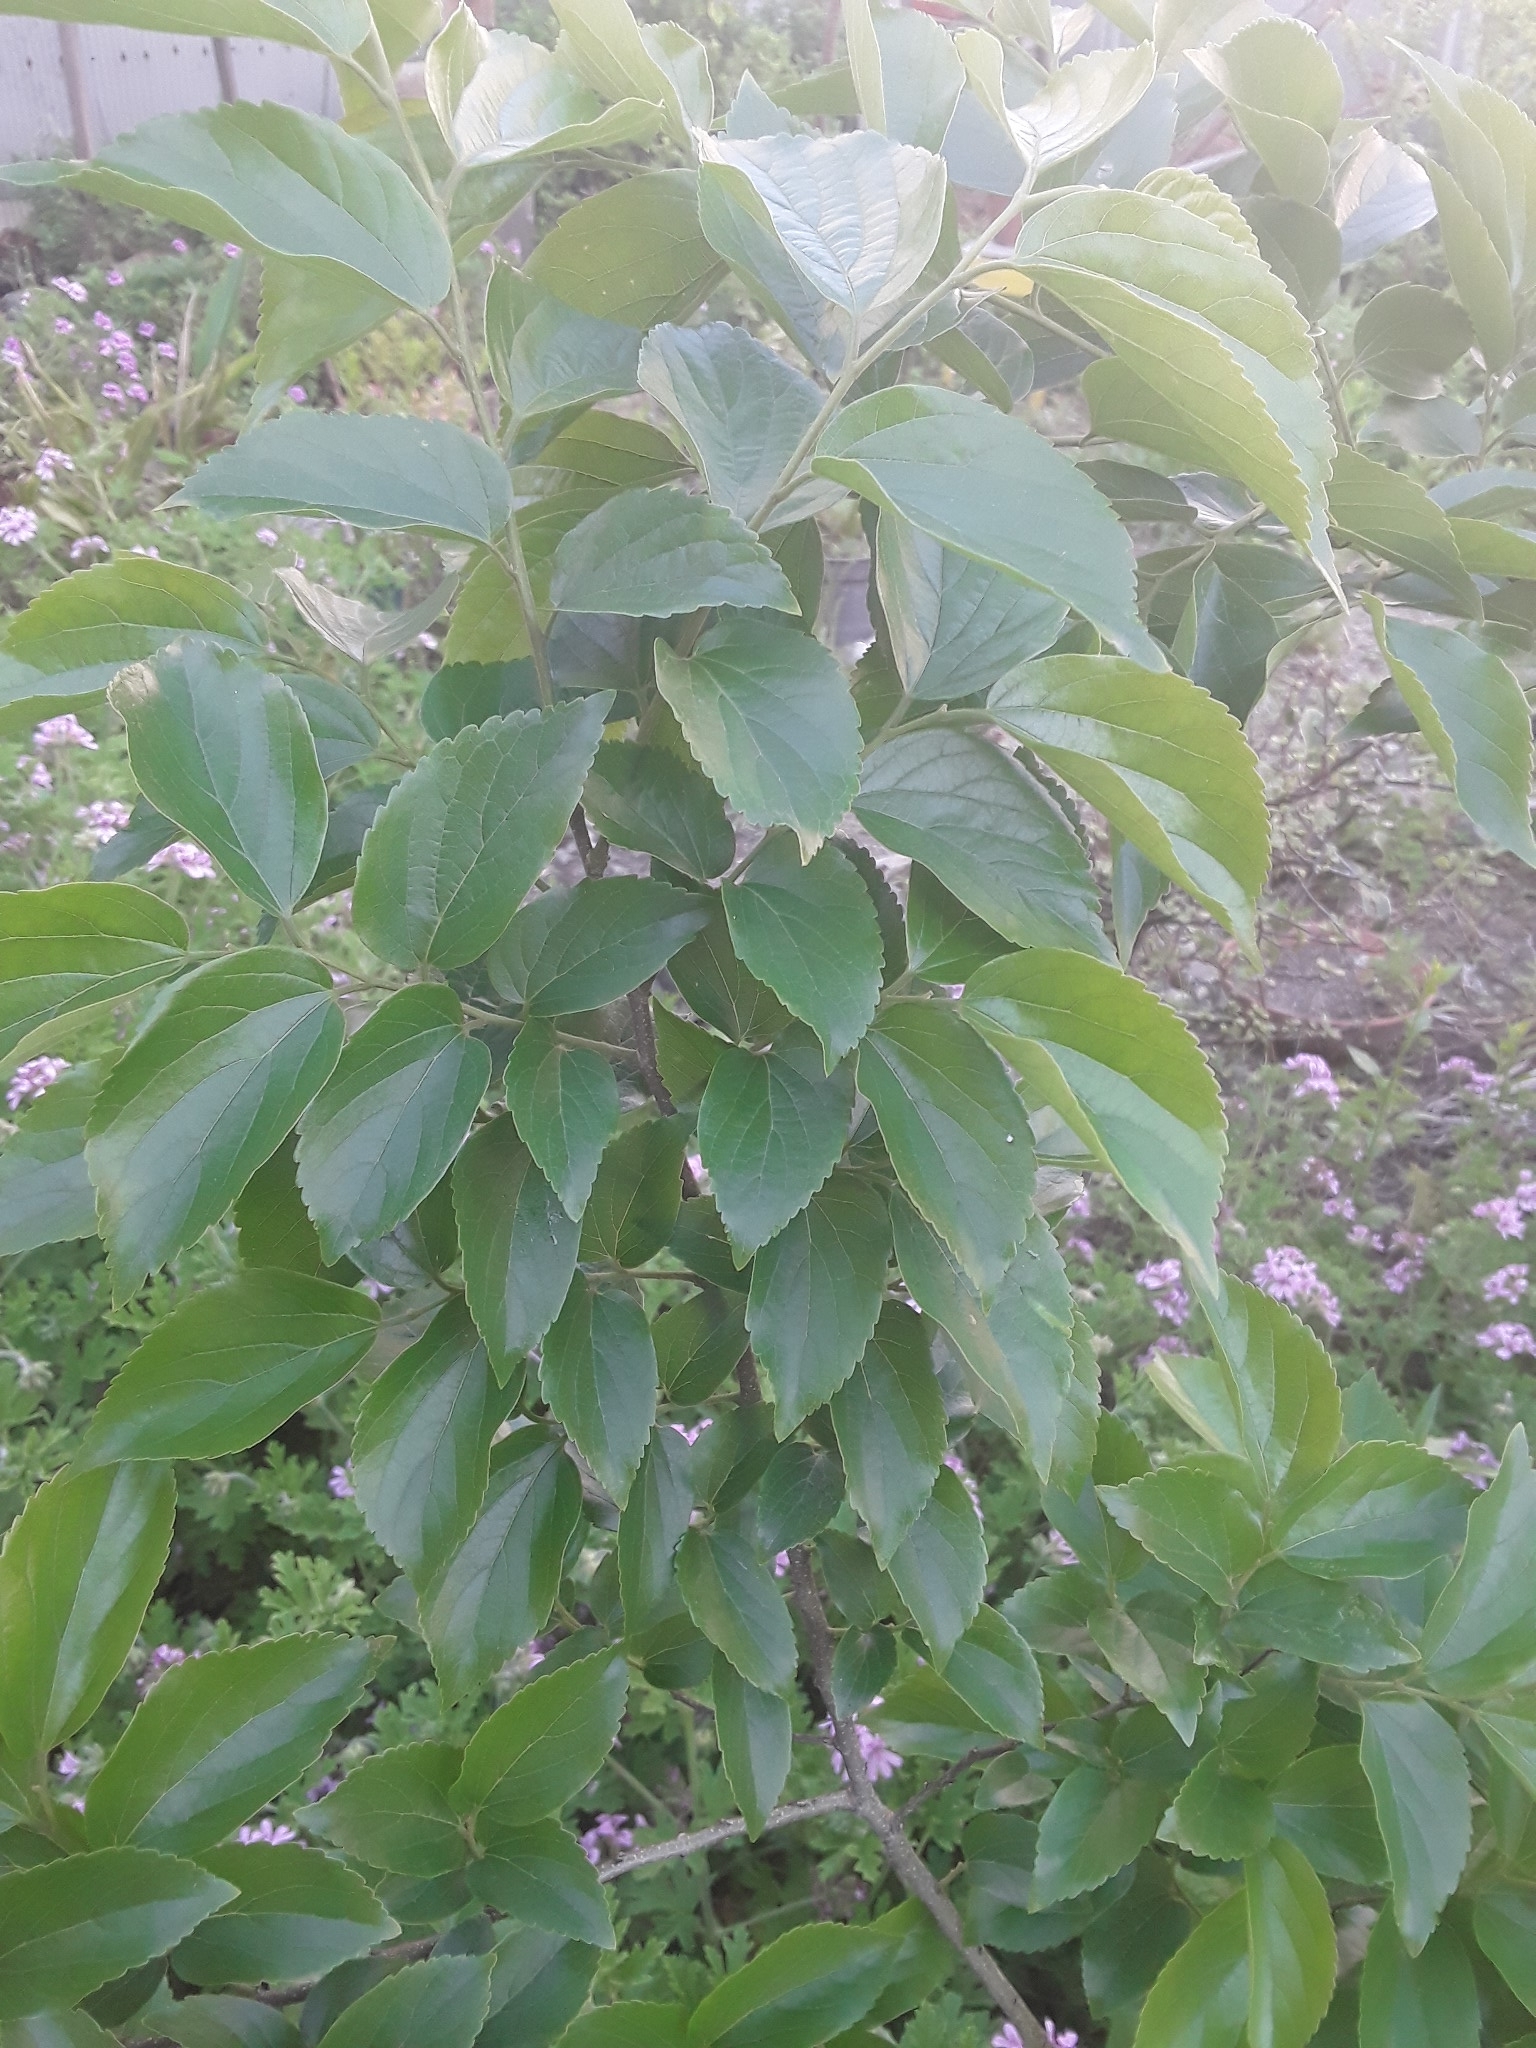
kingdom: Plantae
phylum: Tracheophyta
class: Magnoliopsida
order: Rosales
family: Cannabaceae
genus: Celtis
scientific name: Celtis sinensis
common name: Chinese hackberry
